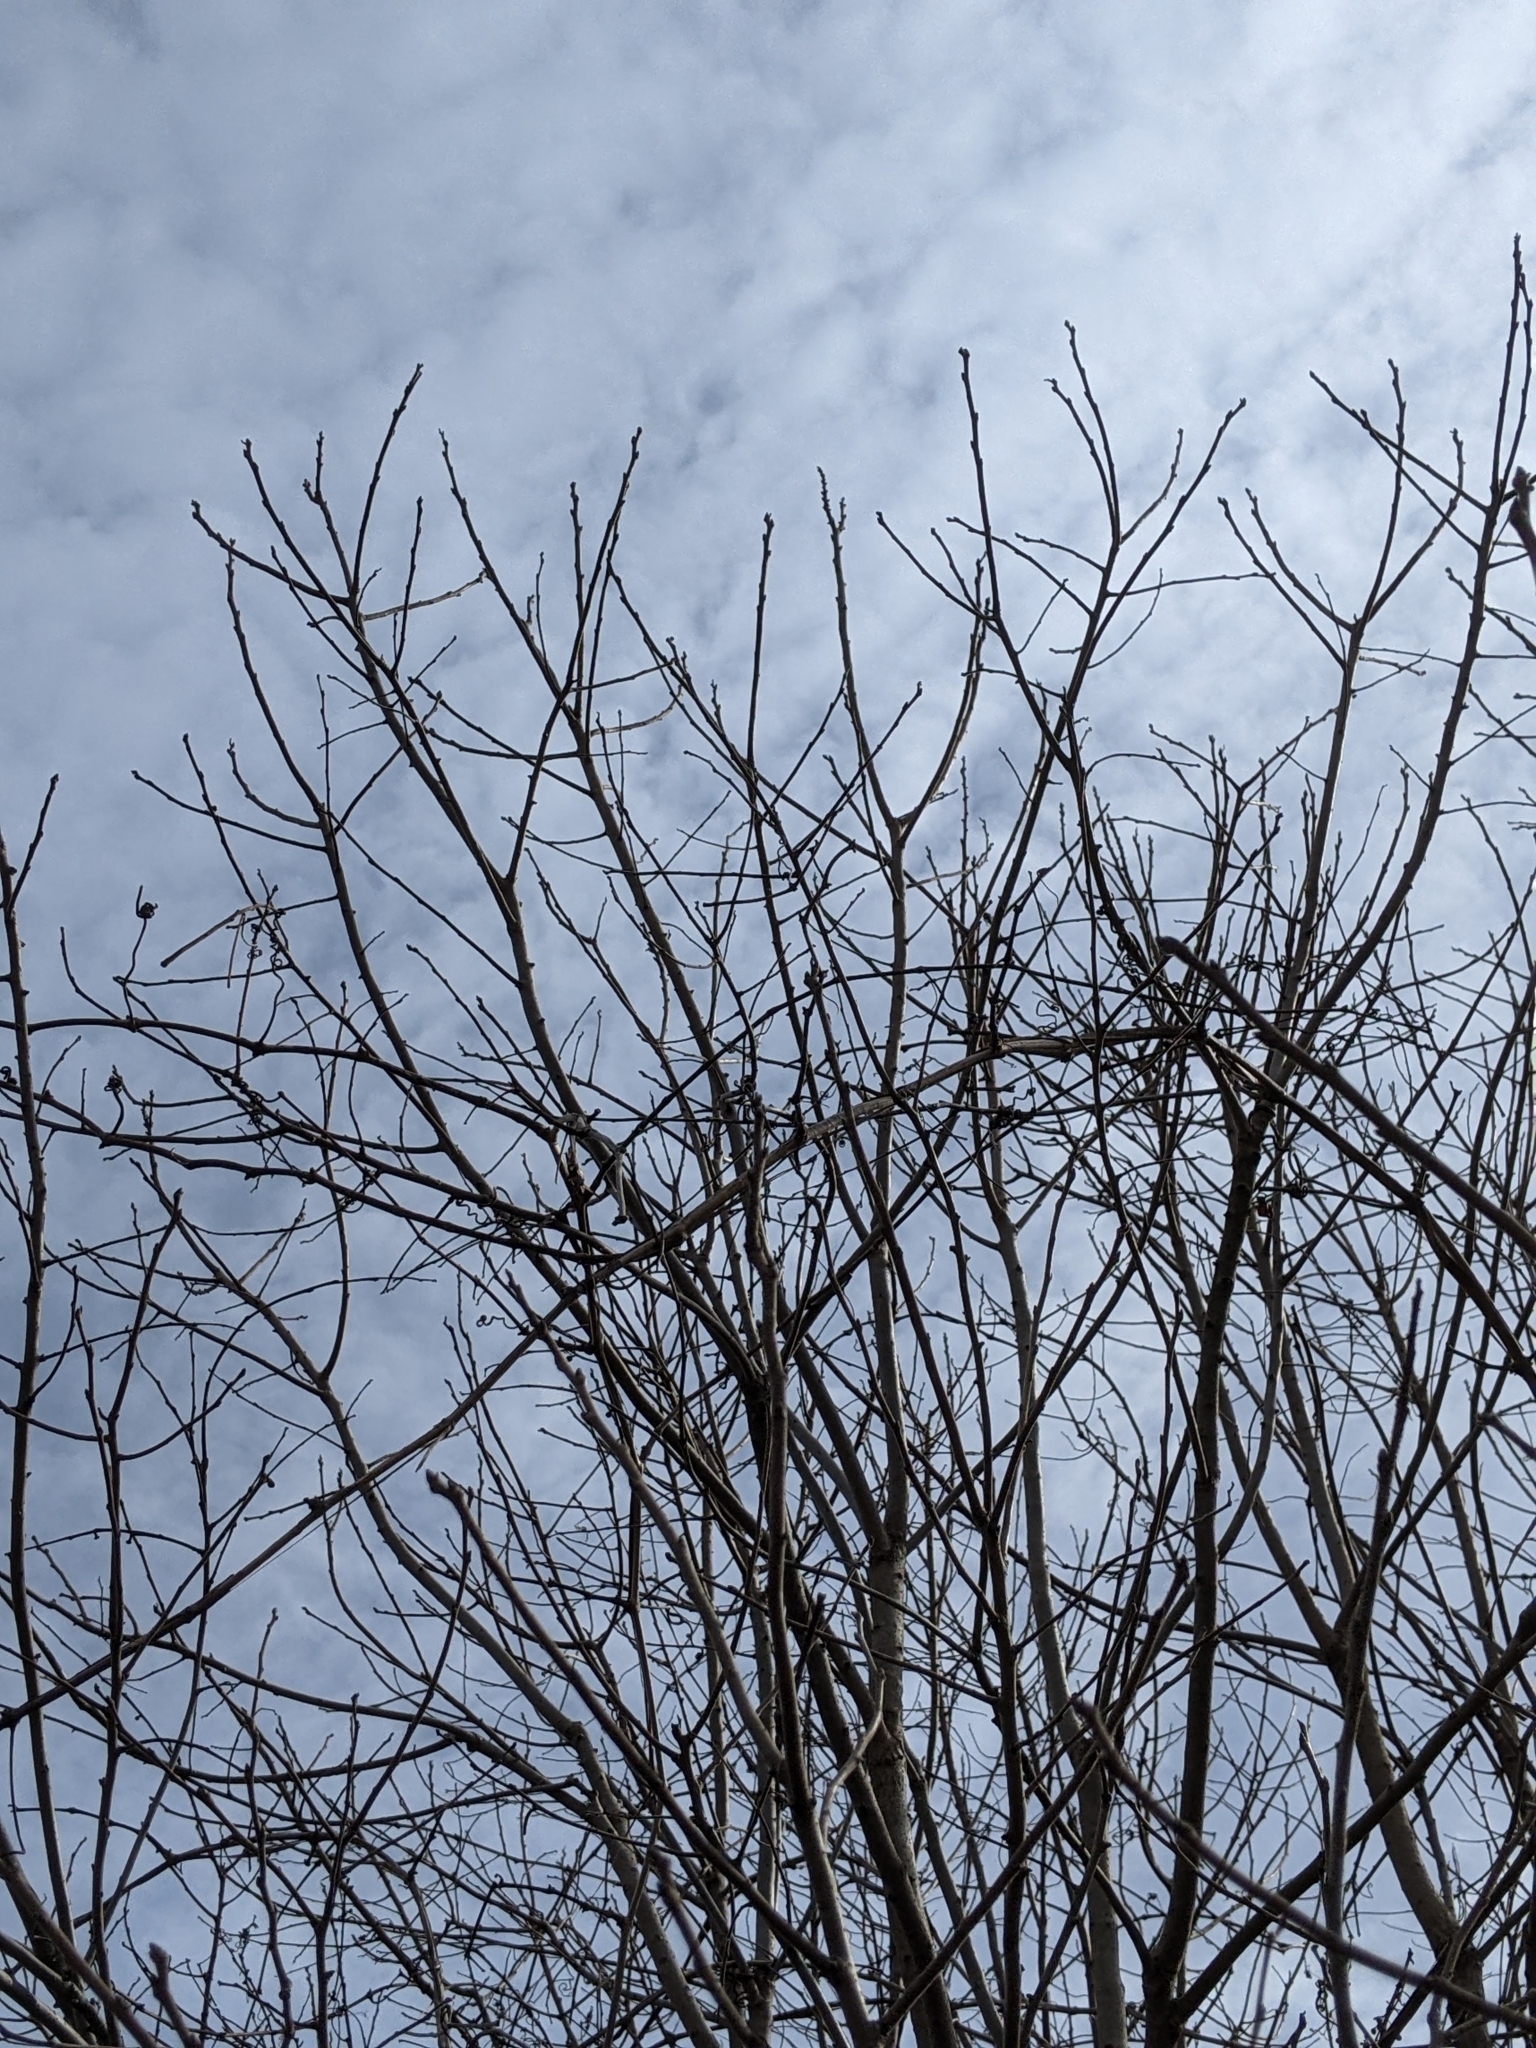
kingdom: Plantae
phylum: Tracheophyta
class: Magnoliopsida
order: Ericales
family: Ebenaceae
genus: Diospyros
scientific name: Diospyros virginiana
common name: Persimmon
